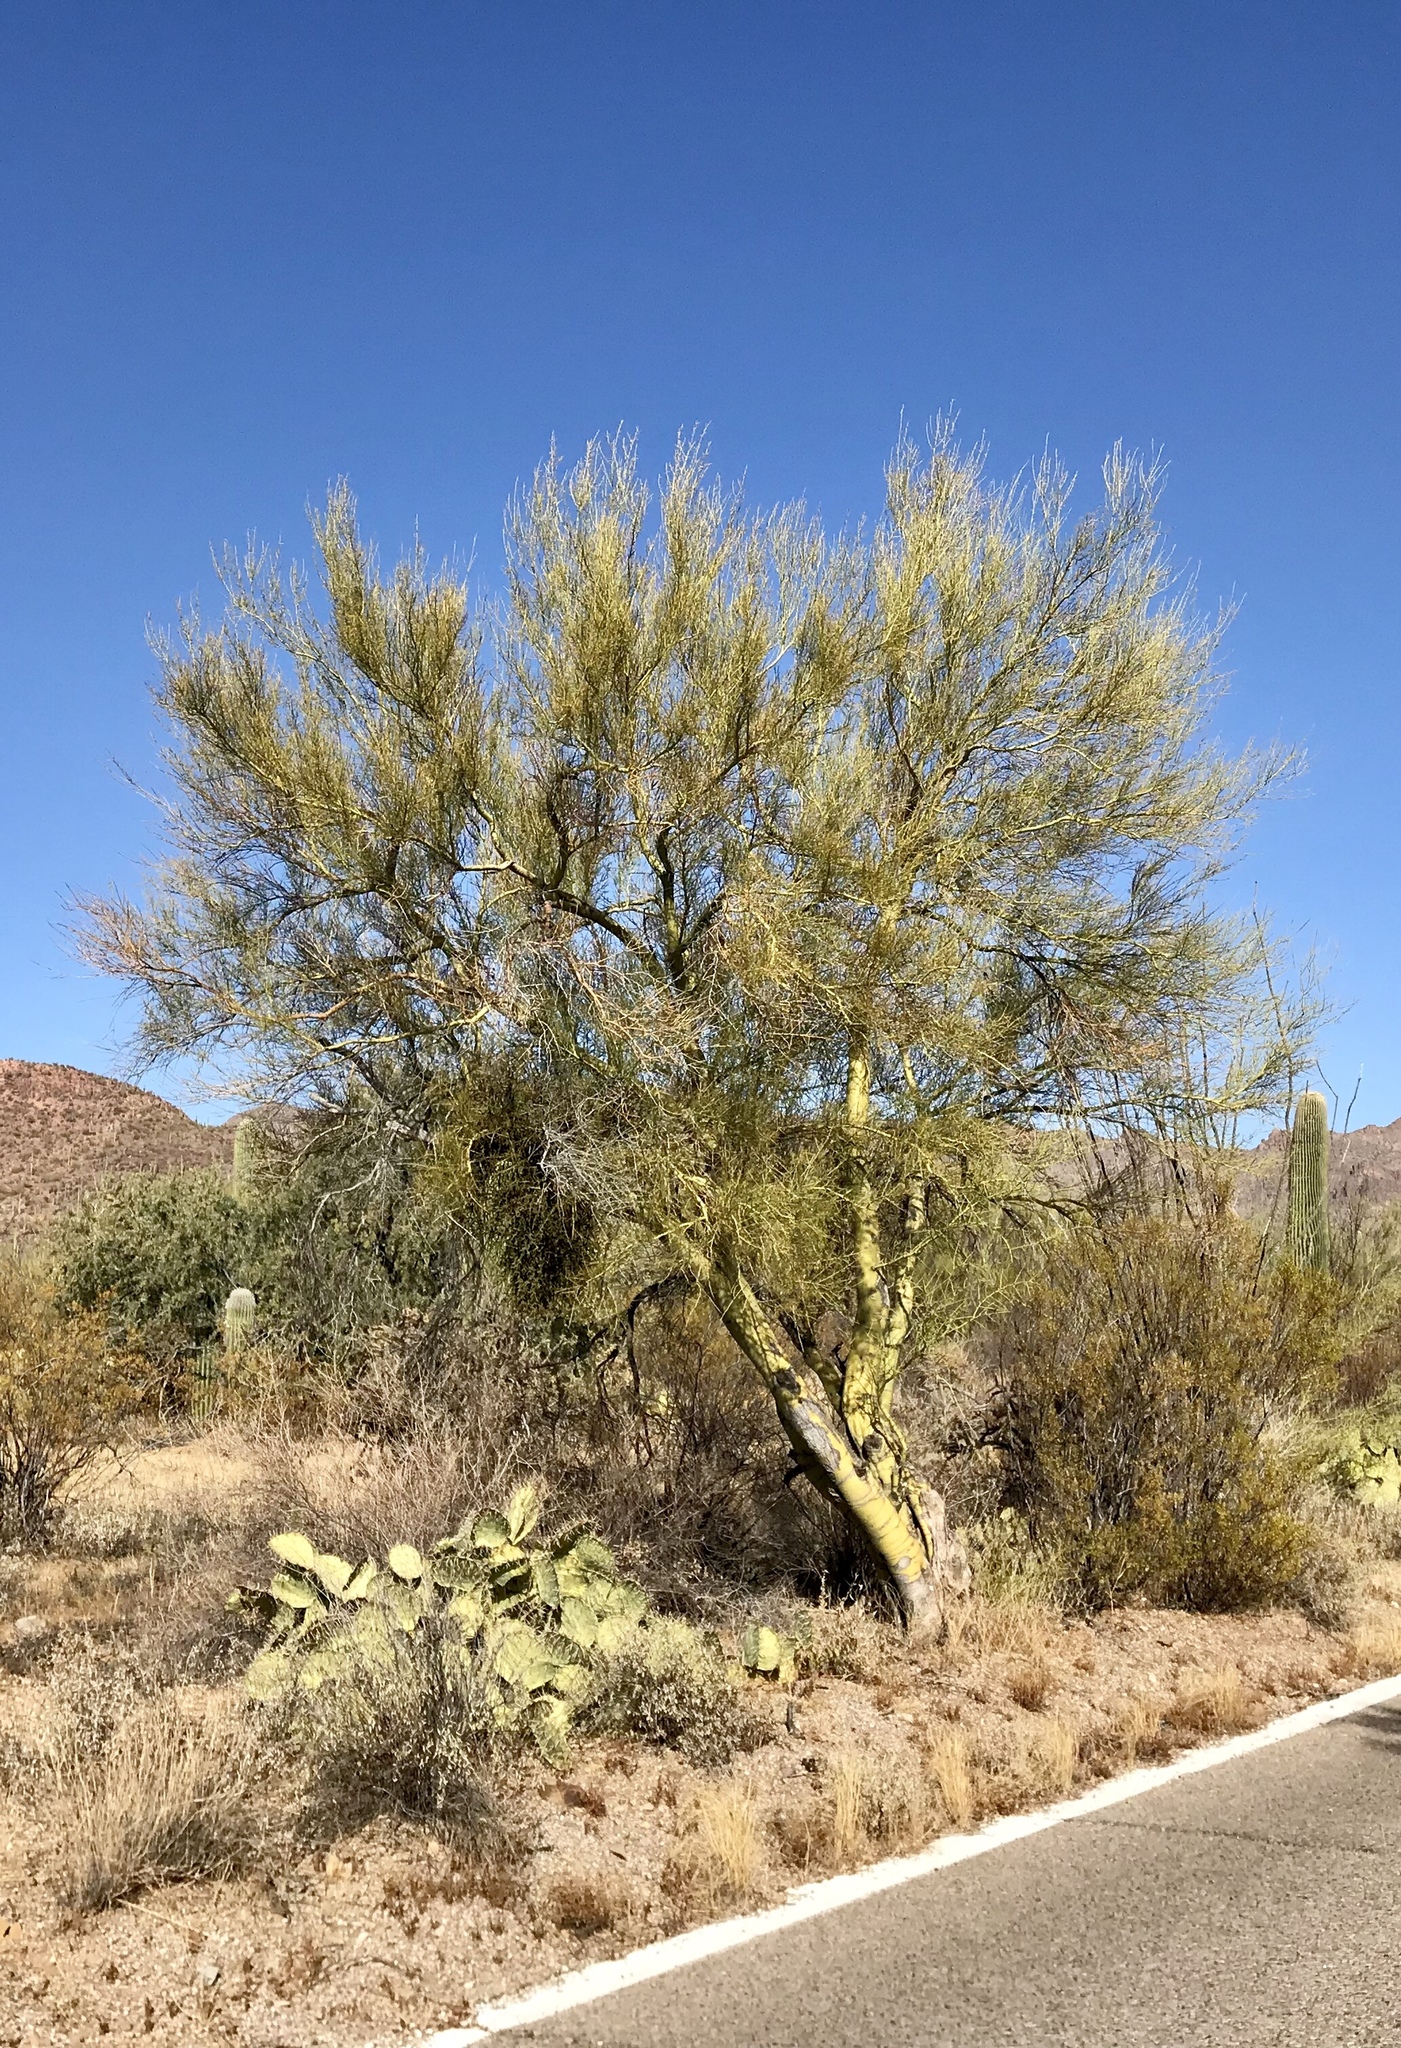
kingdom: Plantae
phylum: Tracheophyta
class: Magnoliopsida
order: Fabales
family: Fabaceae
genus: Parkinsonia
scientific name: Parkinsonia microphylla
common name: Yellow paloverde
